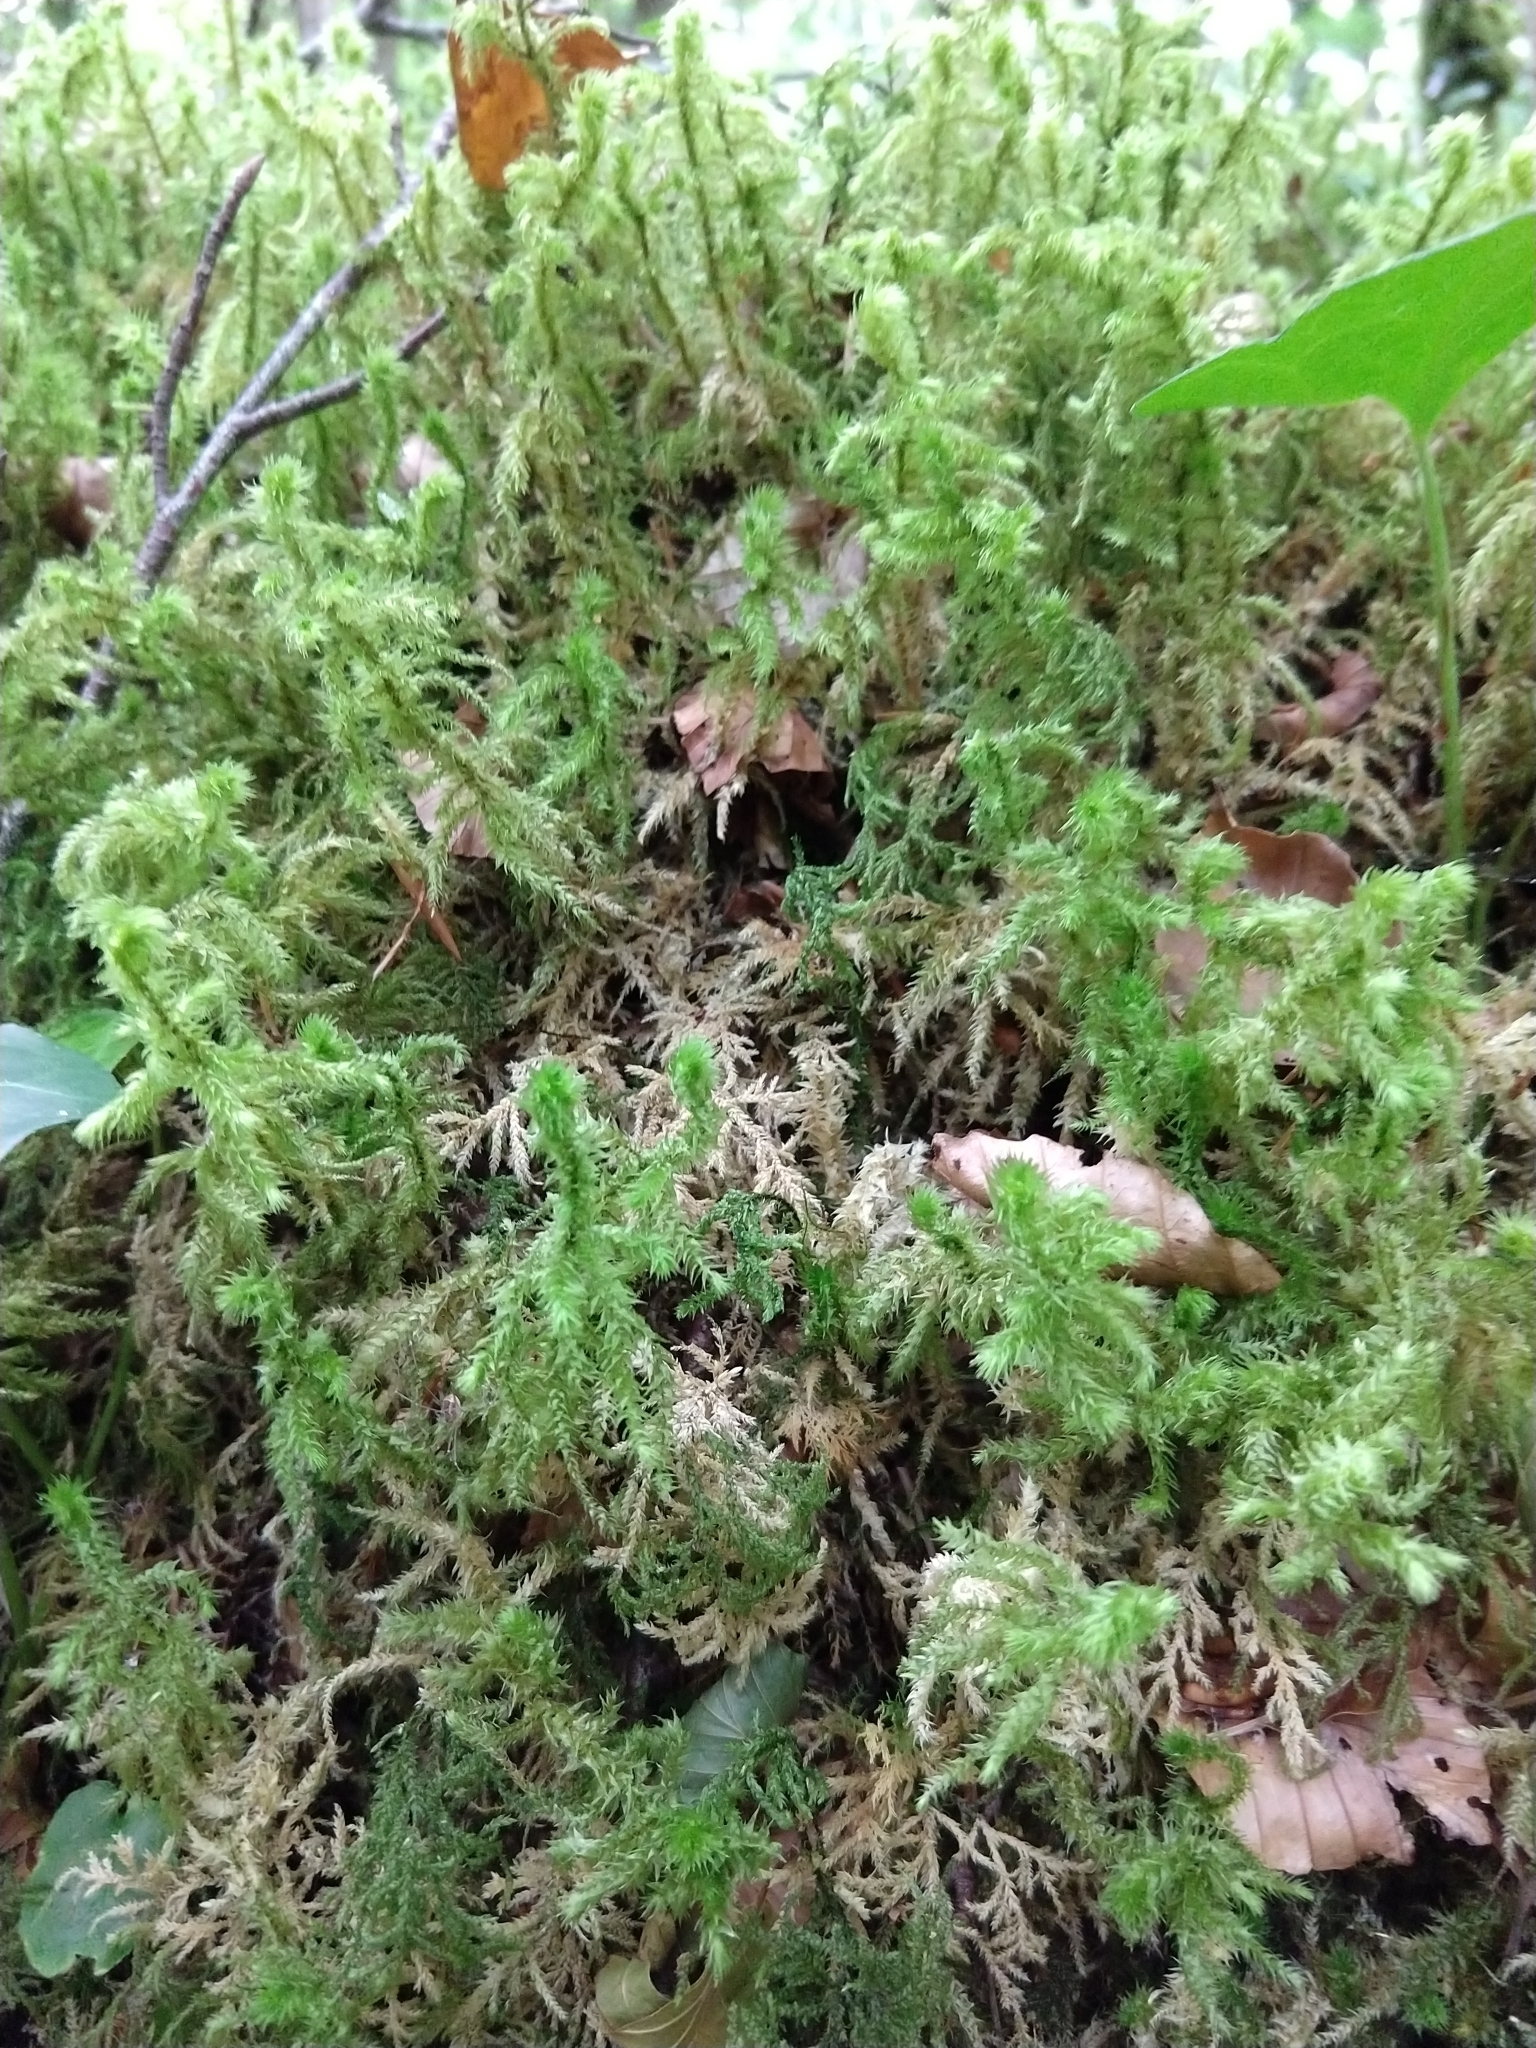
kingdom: Plantae
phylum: Bryophyta
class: Bryopsida
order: Hypnales
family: Hylocomiaceae
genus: Hylocomiadelphus
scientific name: Hylocomiadelphus triquetrus
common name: Rough goose neck moss
